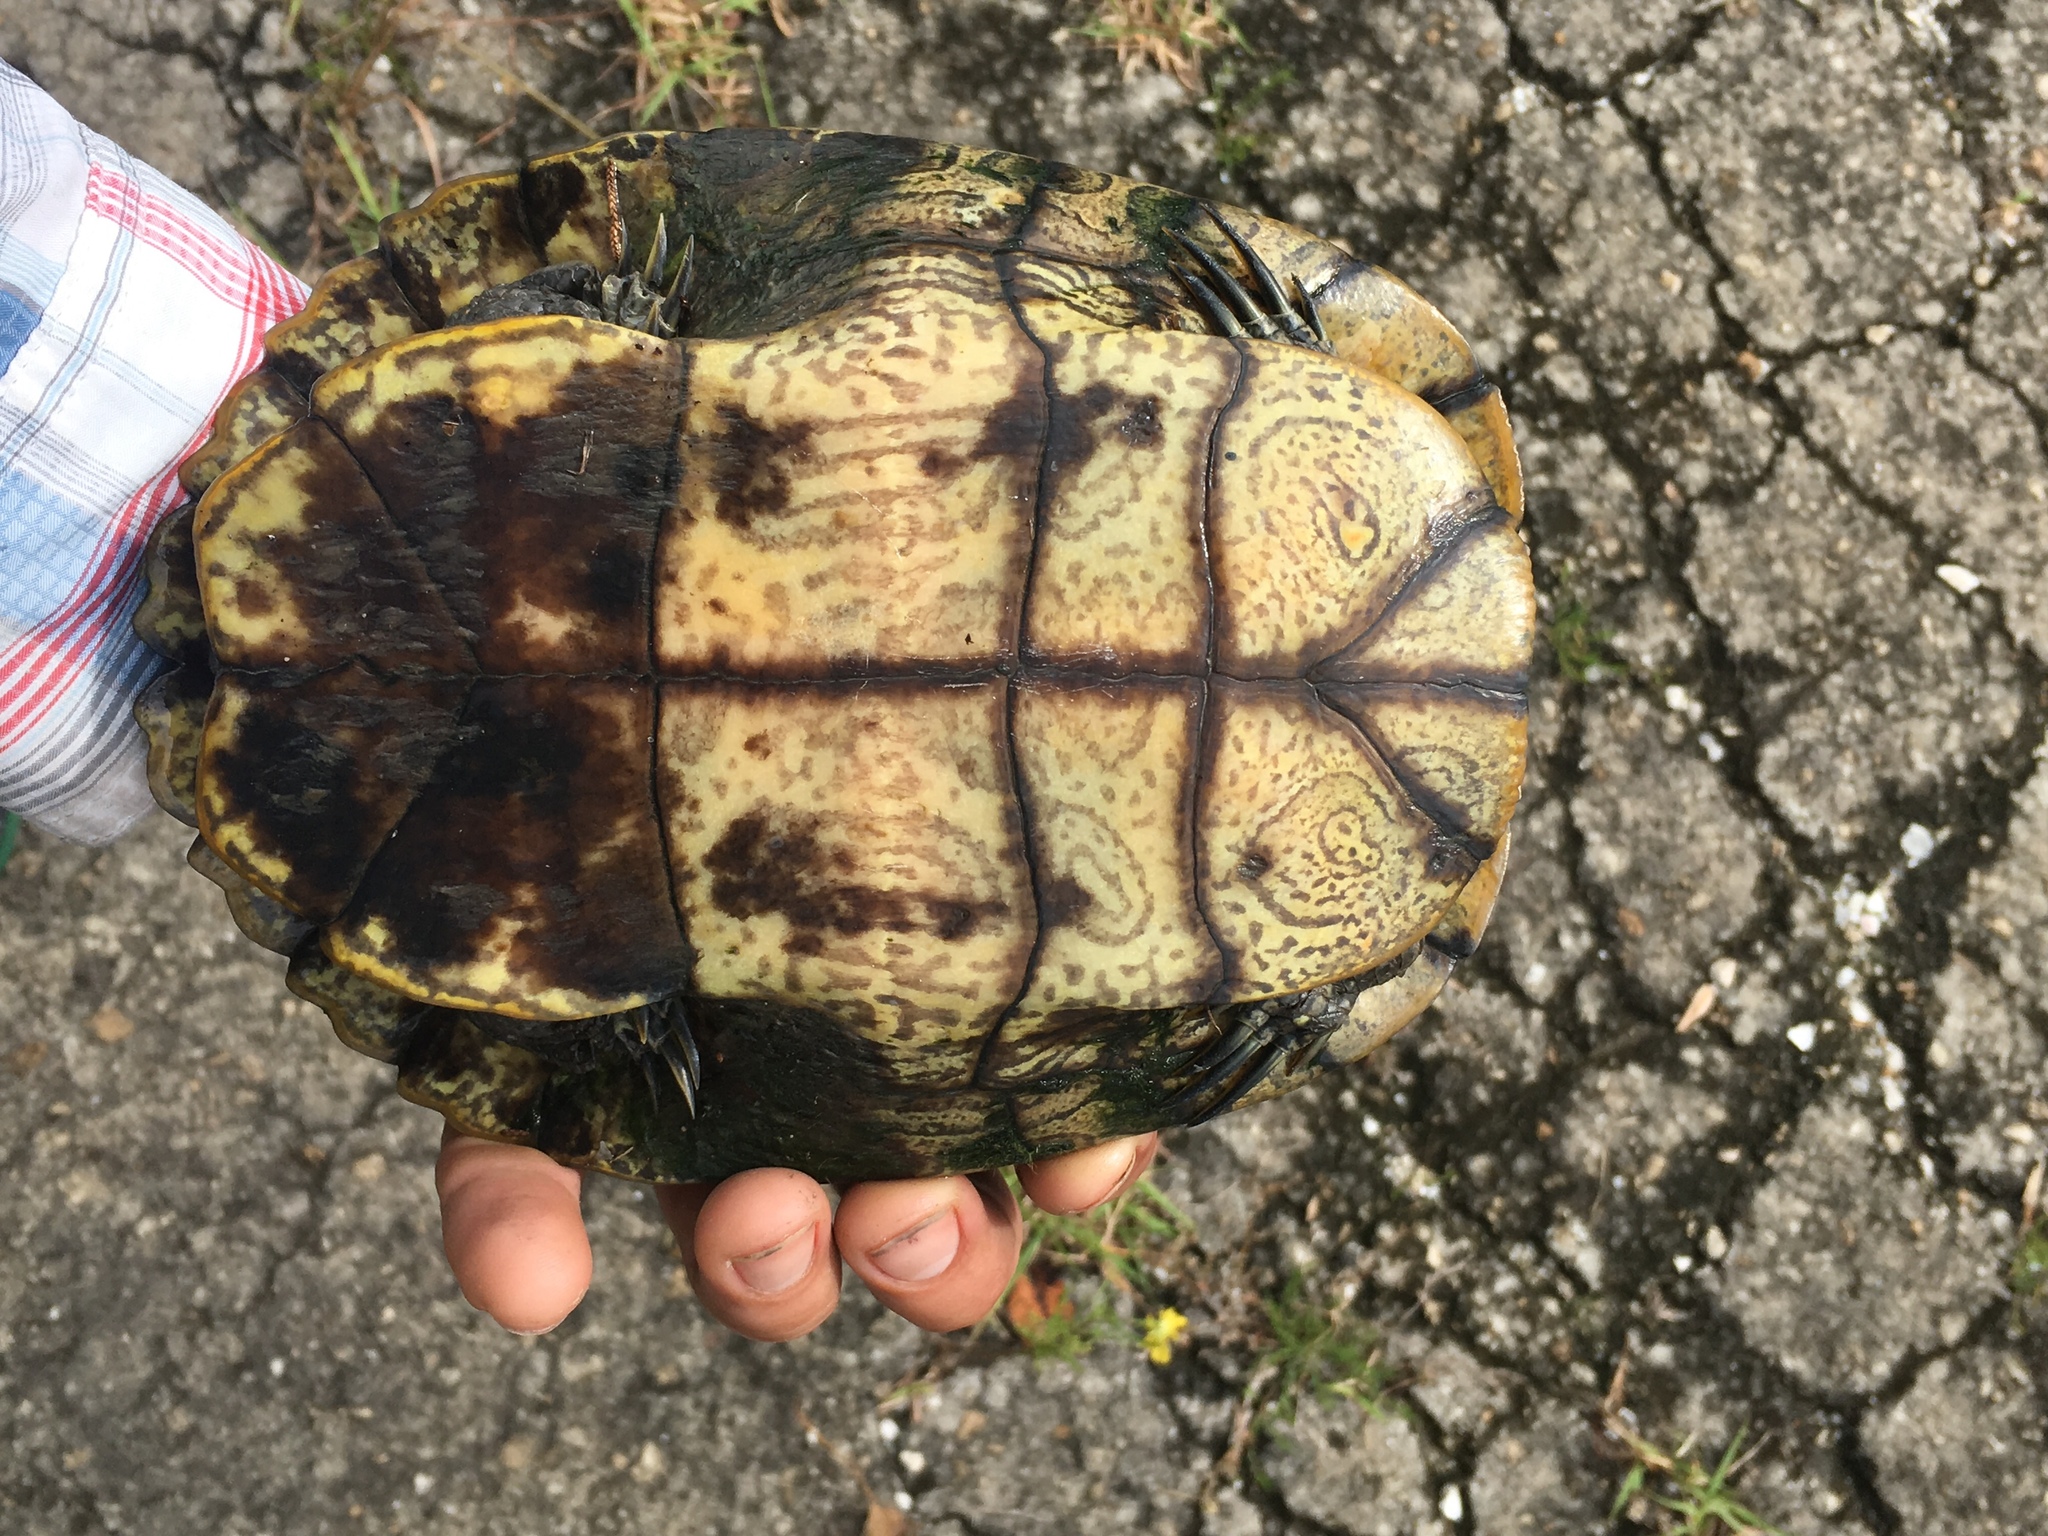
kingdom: Animalia
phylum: Chordata
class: Testudines
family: Emydidae
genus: Trachemys
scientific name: Trachemys scripta
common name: Slider
